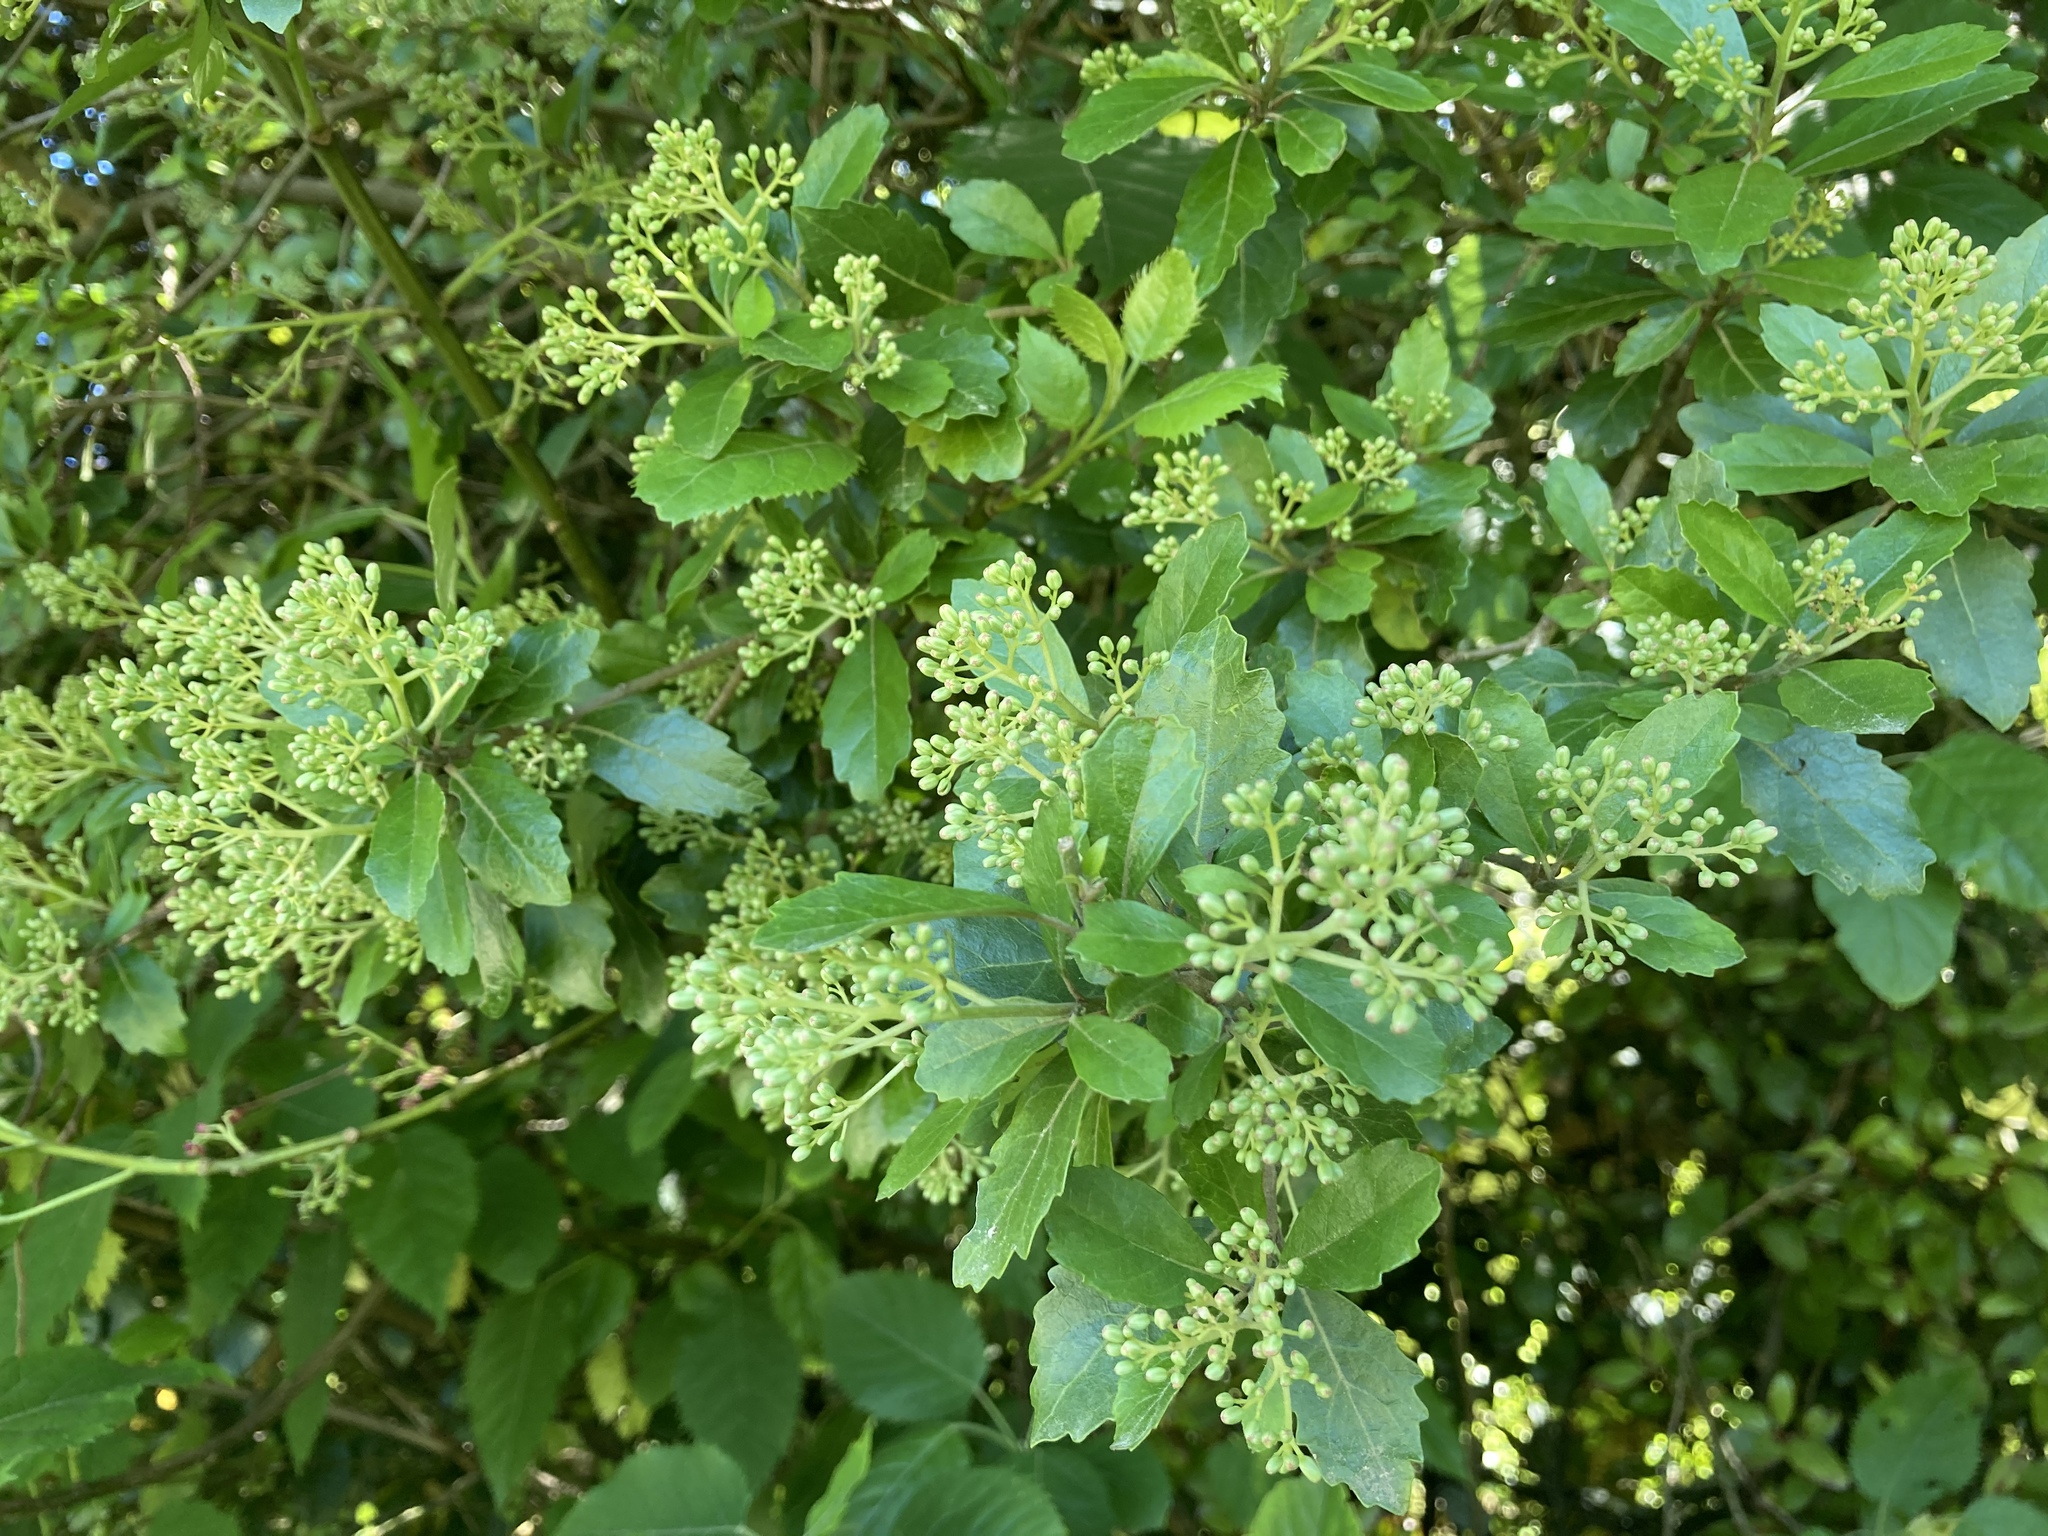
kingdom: Plantae
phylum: Tracheophyta
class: Magnoliopsida
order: Apiales
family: Pennantiaceae
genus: Pennantia
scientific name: Pennantia corymbosa
